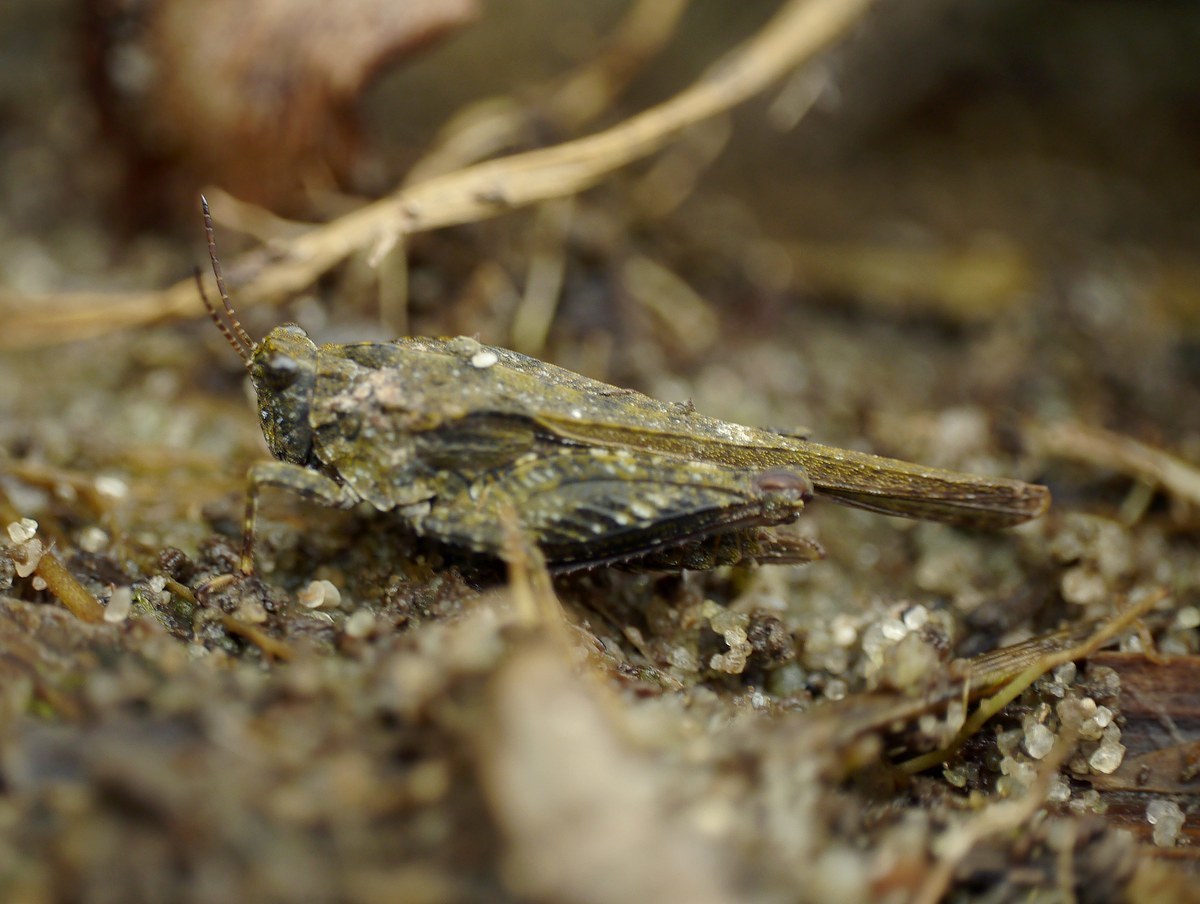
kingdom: Animalia
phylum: Arthropoda
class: Insecta
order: Orthoptera
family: Tetrigidae
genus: Tetrix
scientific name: Tetrix subulata
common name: Slender ground-hopper
